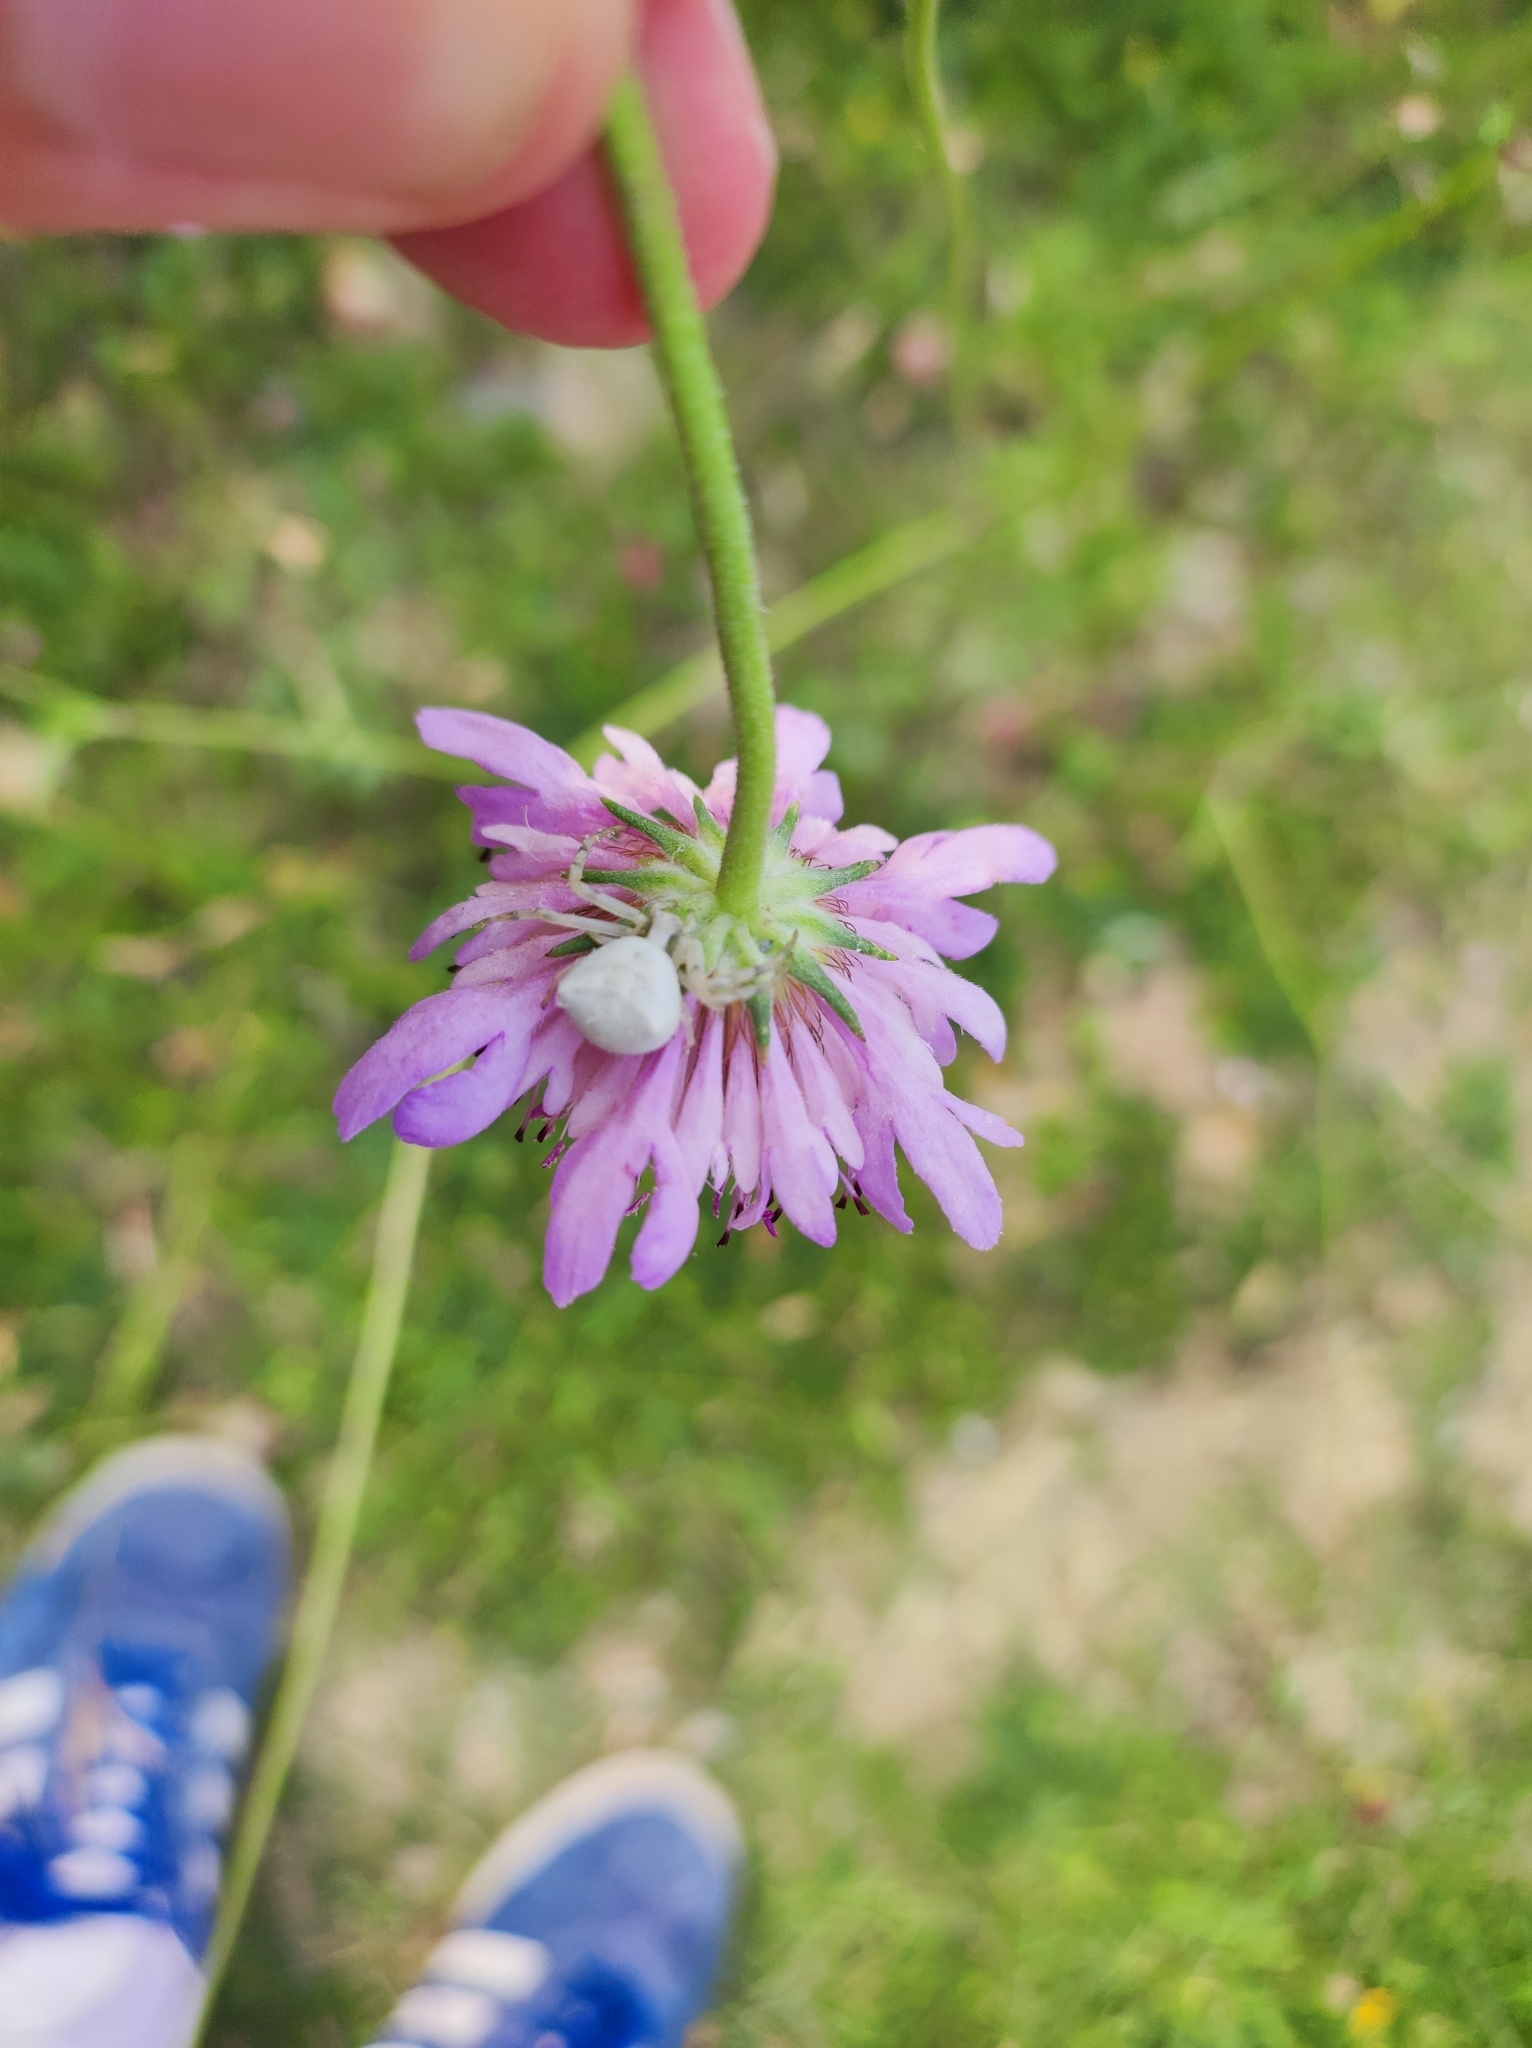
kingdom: Animalia
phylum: Arthropoda
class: Arachnida
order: Araneae
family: Thomisidae
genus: Thomisus
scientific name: Thomisus onustus
